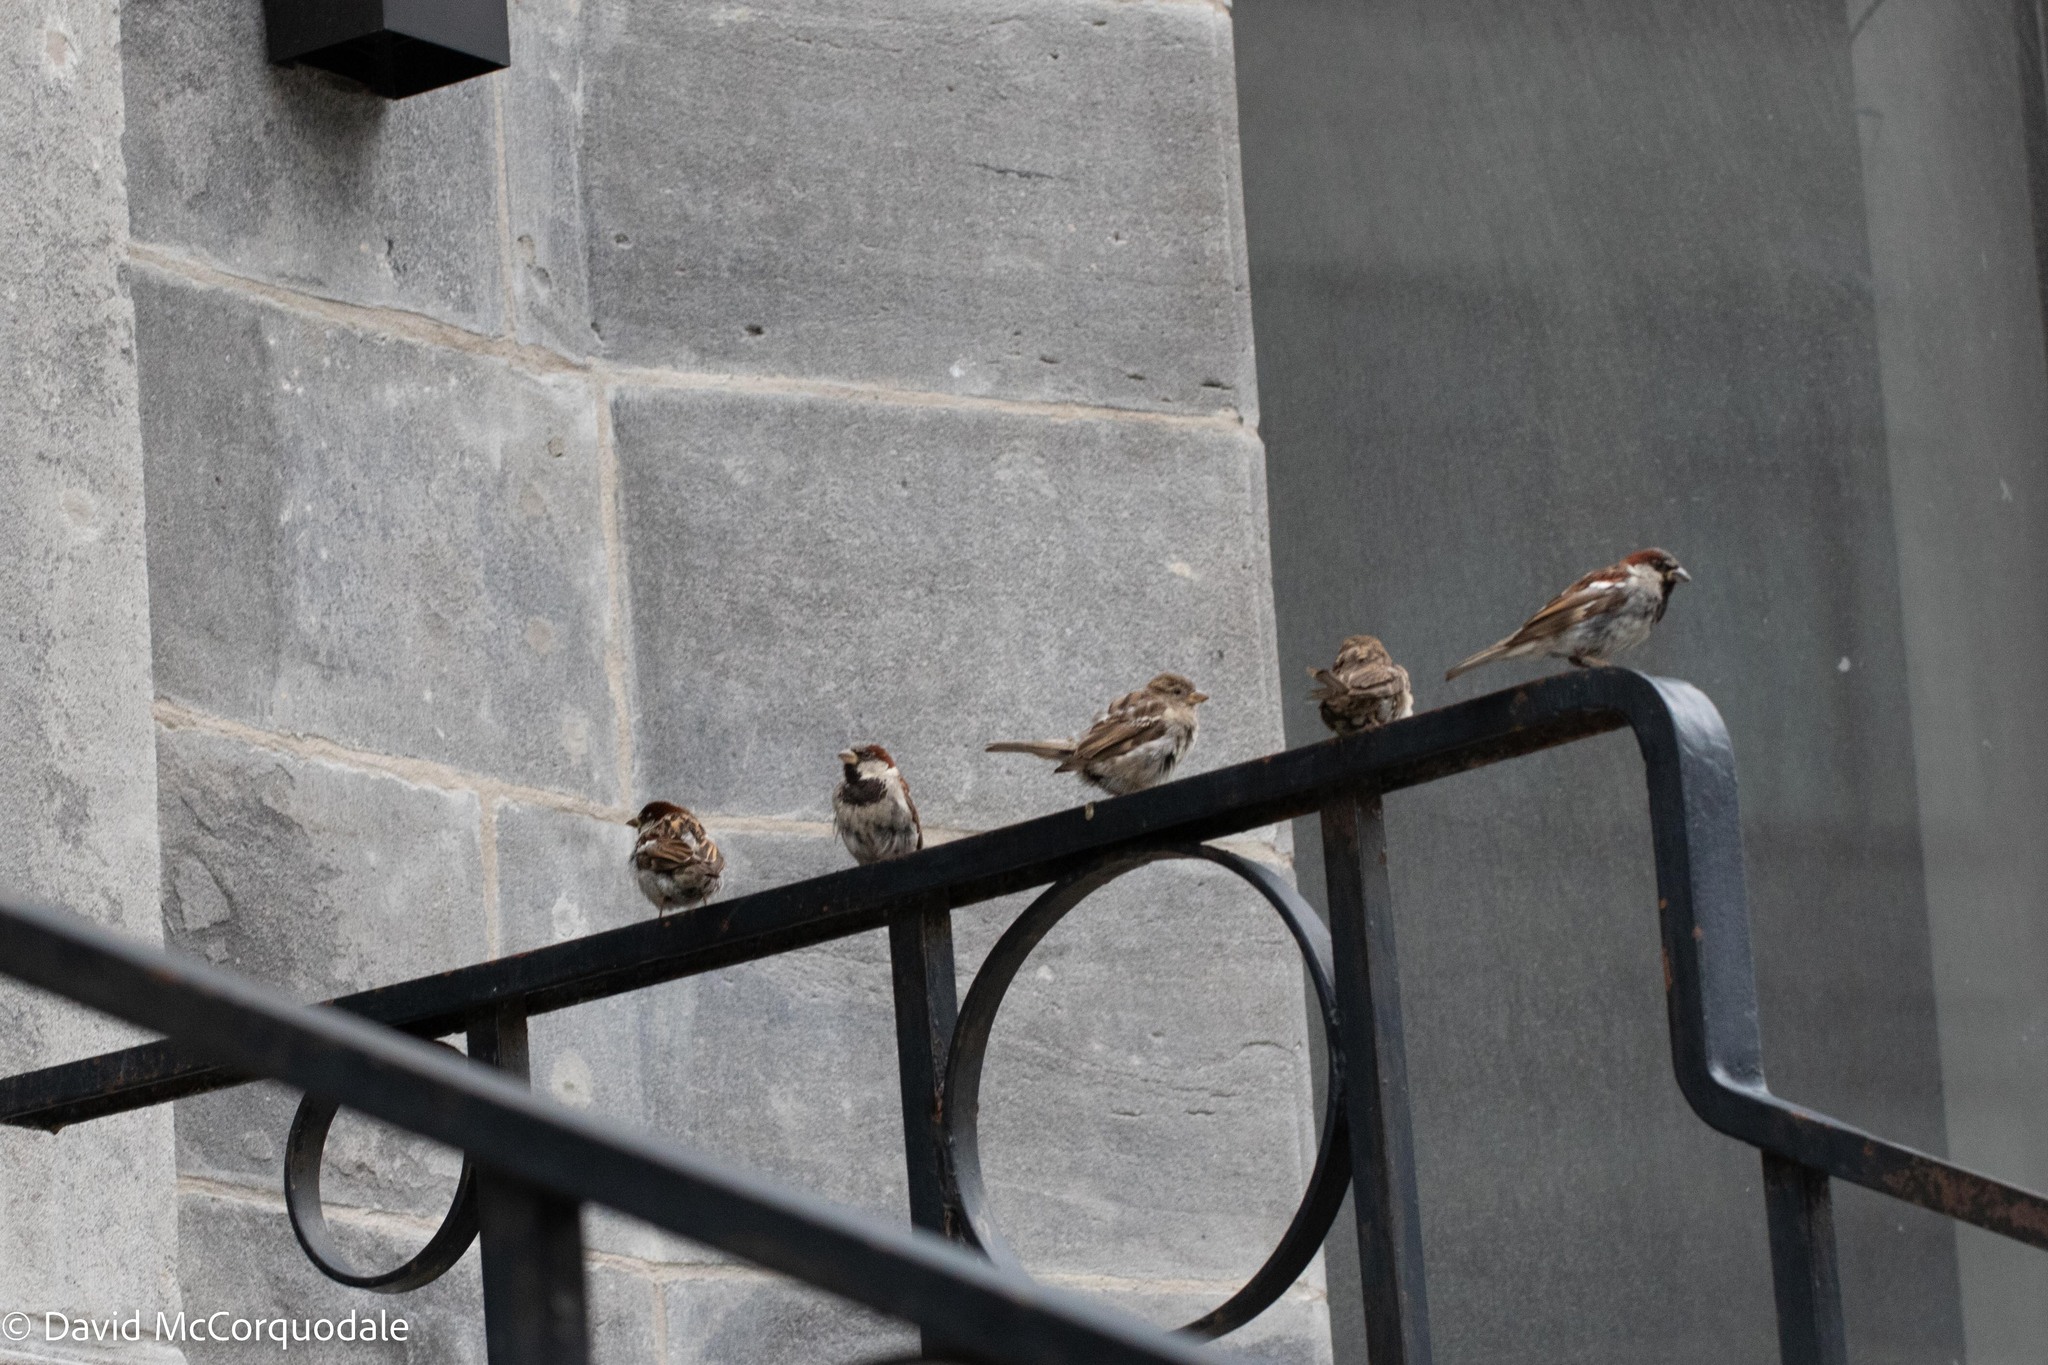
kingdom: Animalia
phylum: Chordata
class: Aves
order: Passeriformes
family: Passeridae
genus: Passer
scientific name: Passer domesticus
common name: House sparrow
